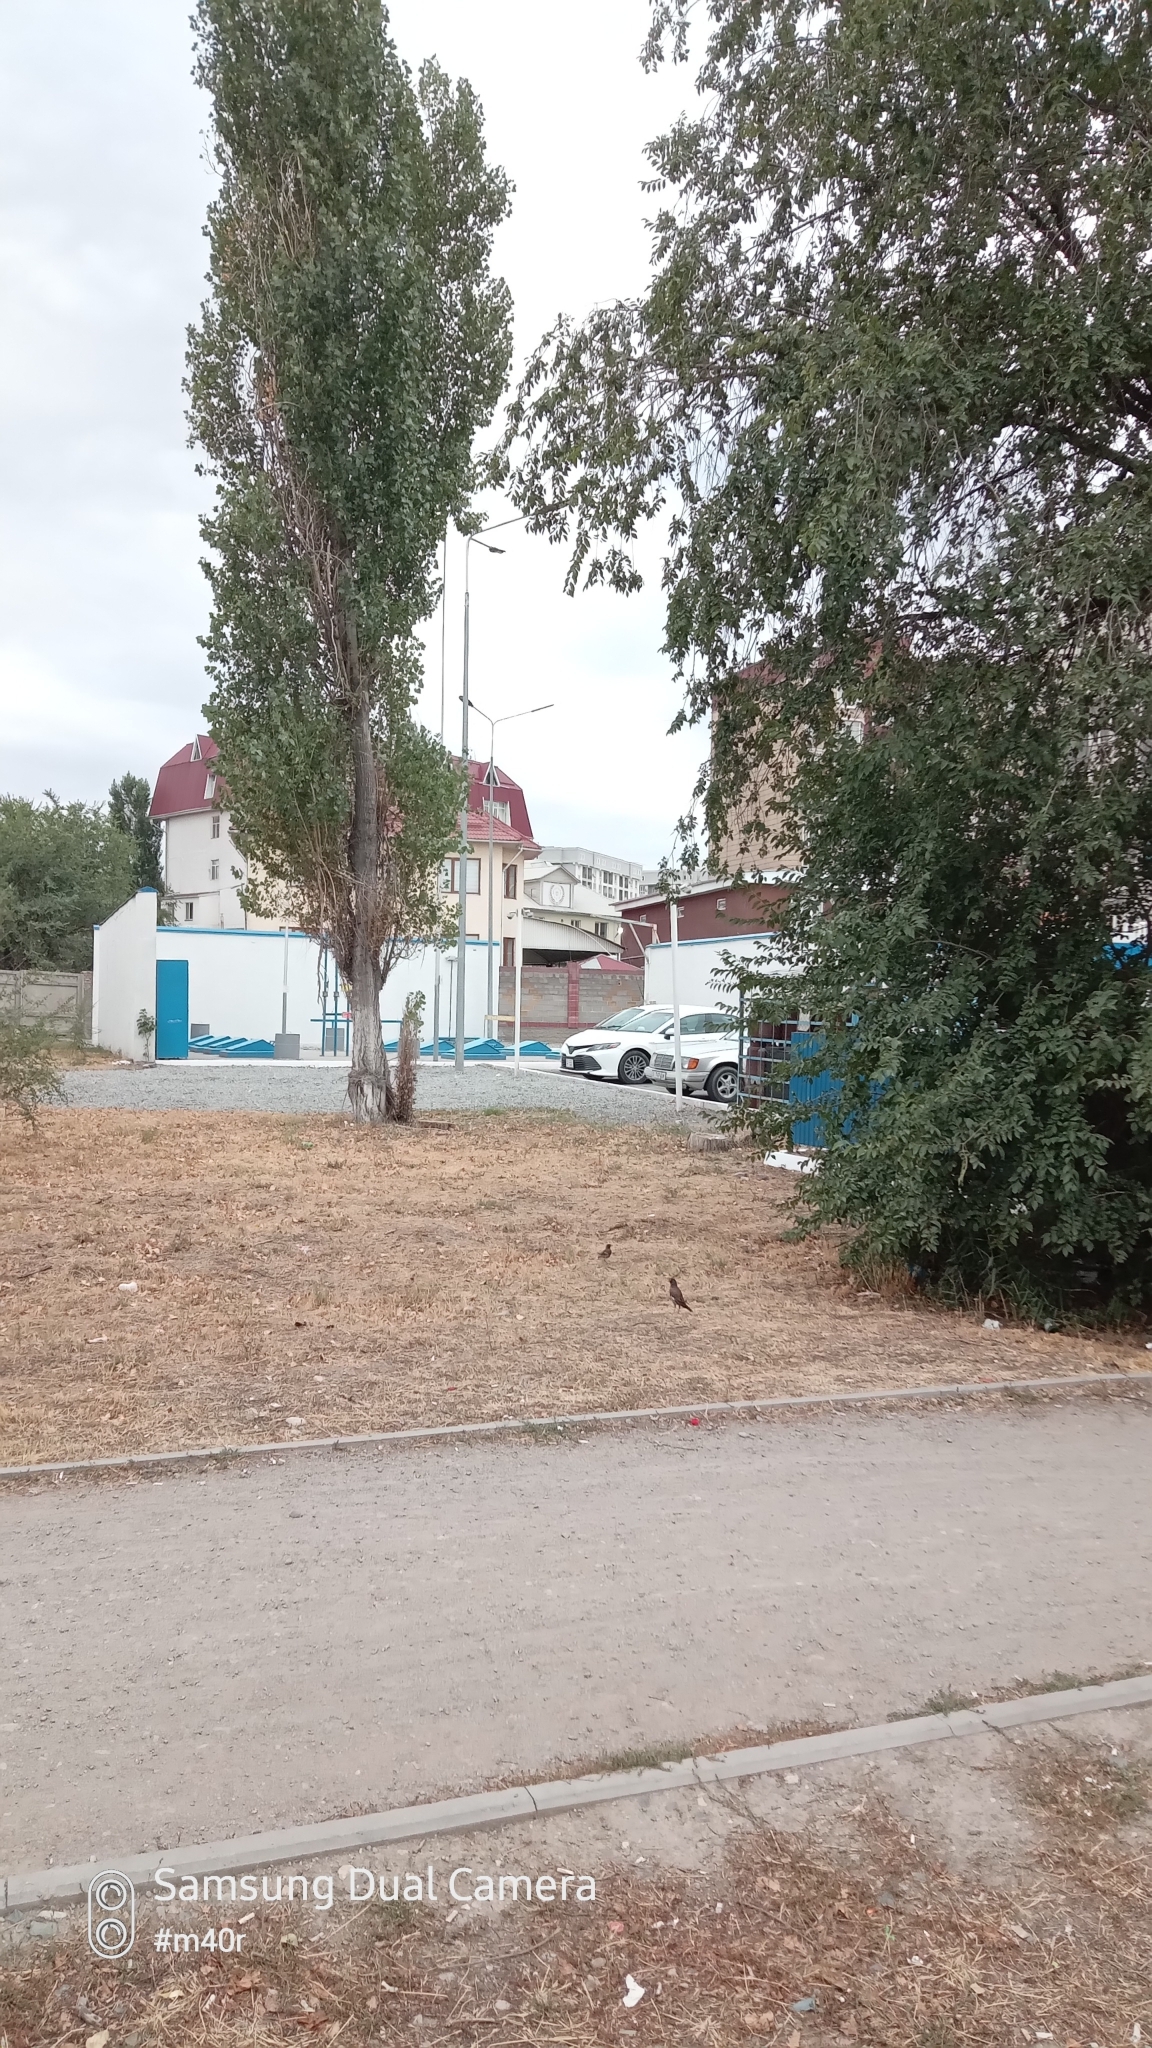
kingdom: Animalia
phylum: Chordata
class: Aves
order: Passeriformes
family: Sturnidae
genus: Acridotheres
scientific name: Acridotheres tristis
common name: Common myna
